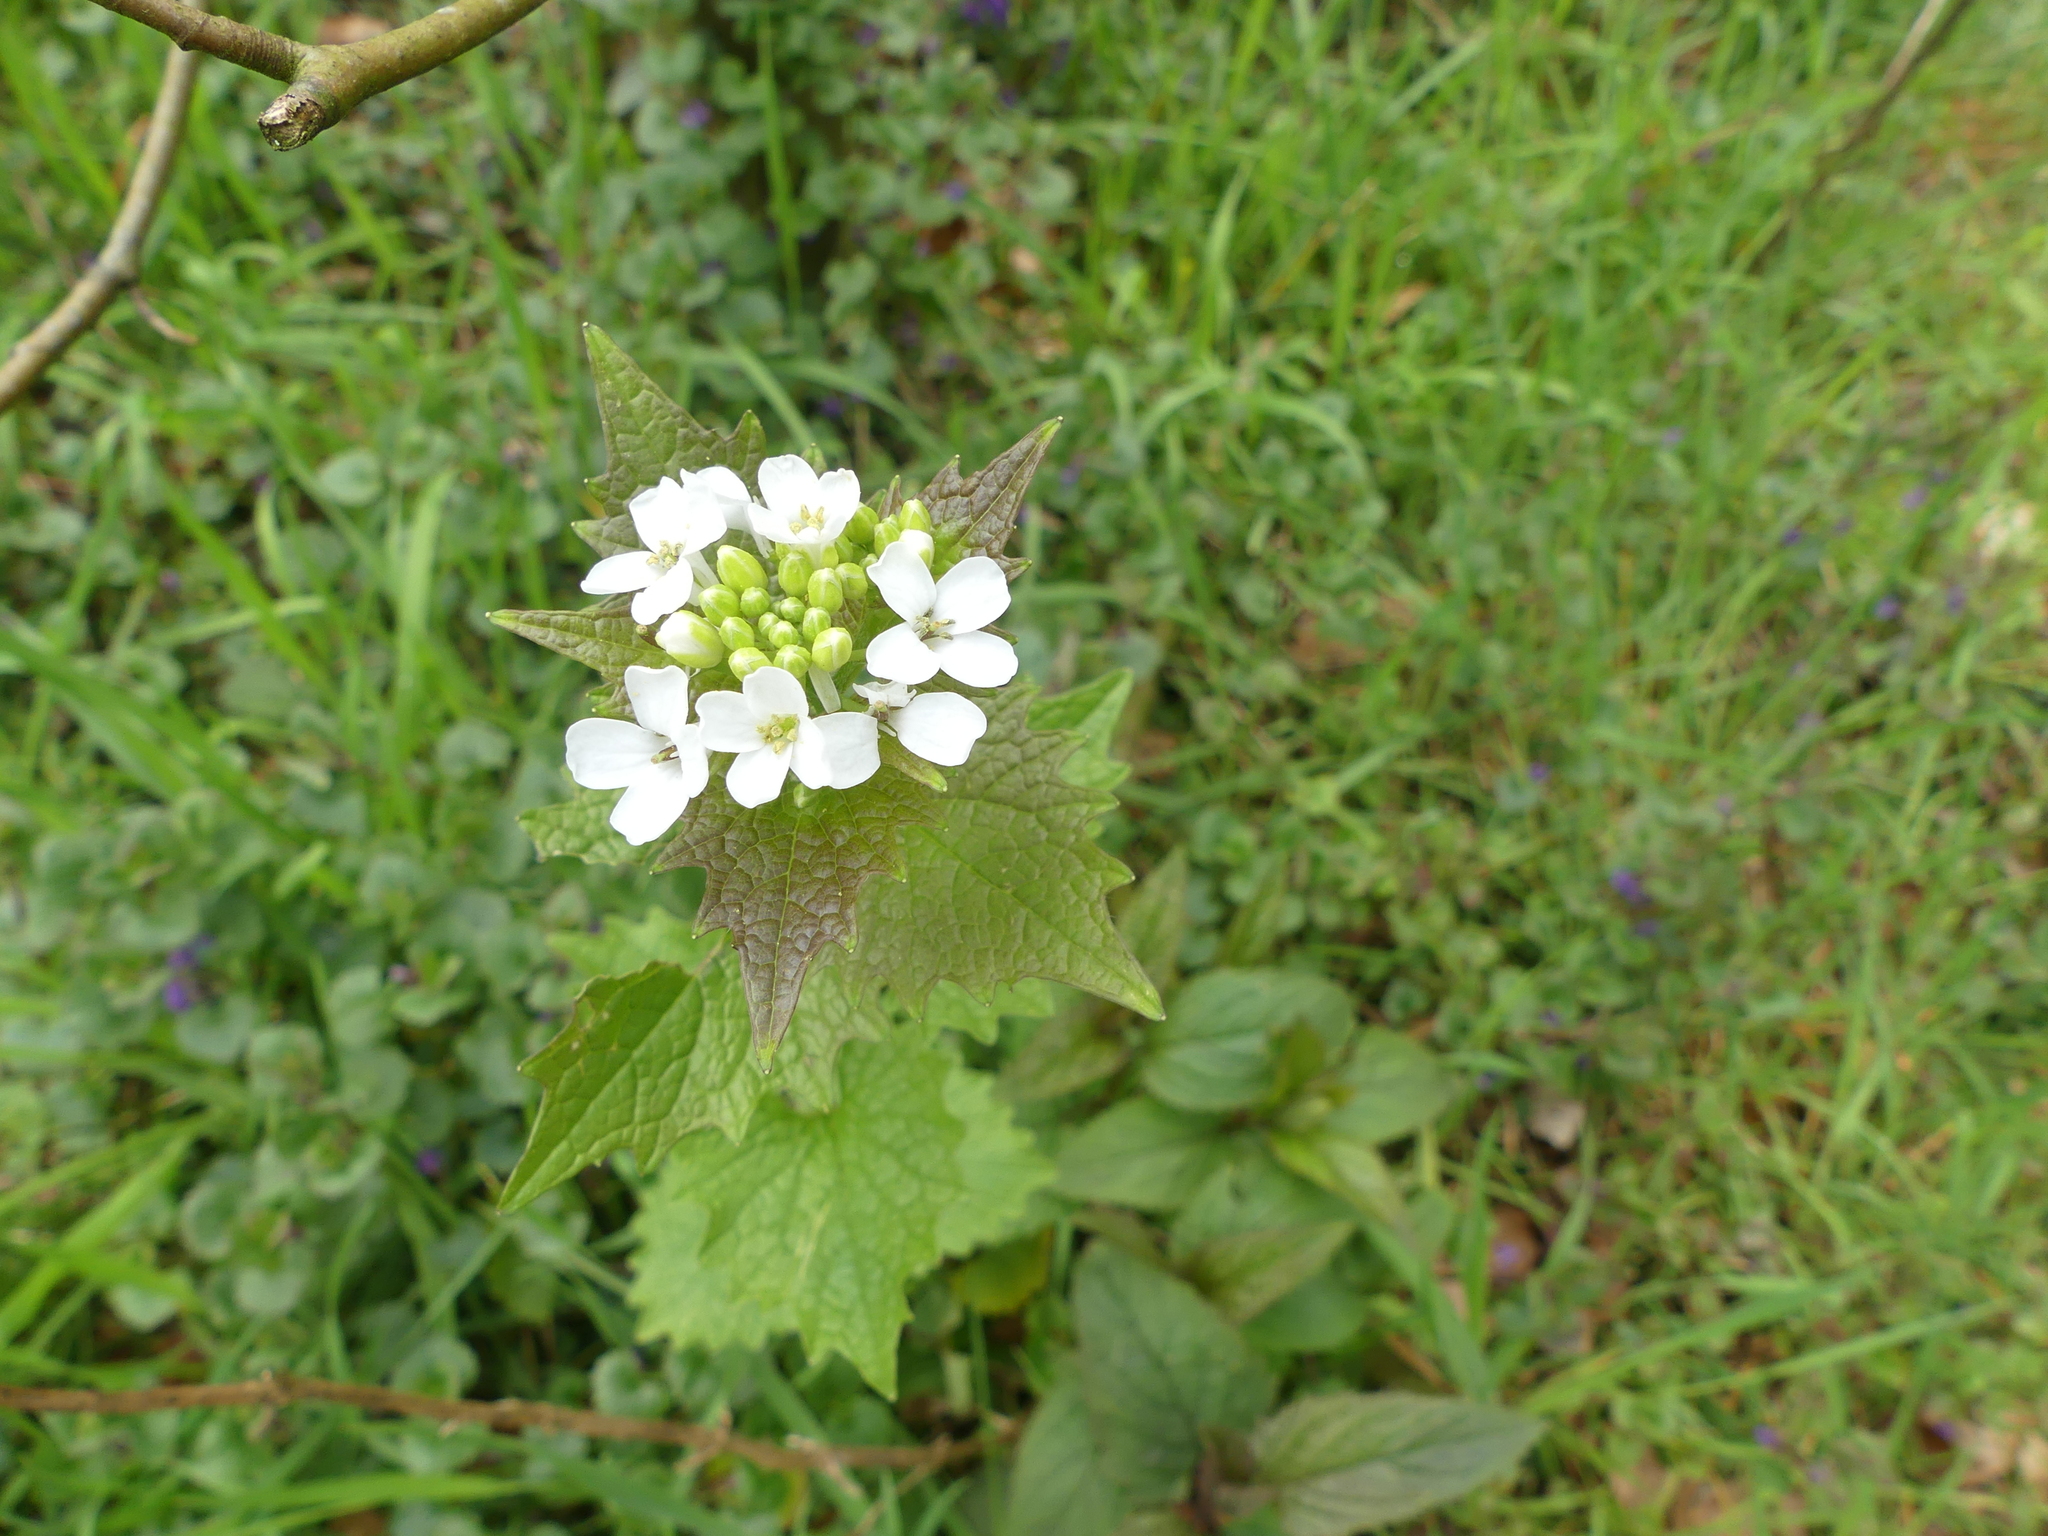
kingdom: Plantae
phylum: Tracheophyta
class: Magnoliopsida
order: Brassicales
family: Brassicaceae
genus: Alliaria
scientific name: Alliaria petiolata
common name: Garlic mustard
